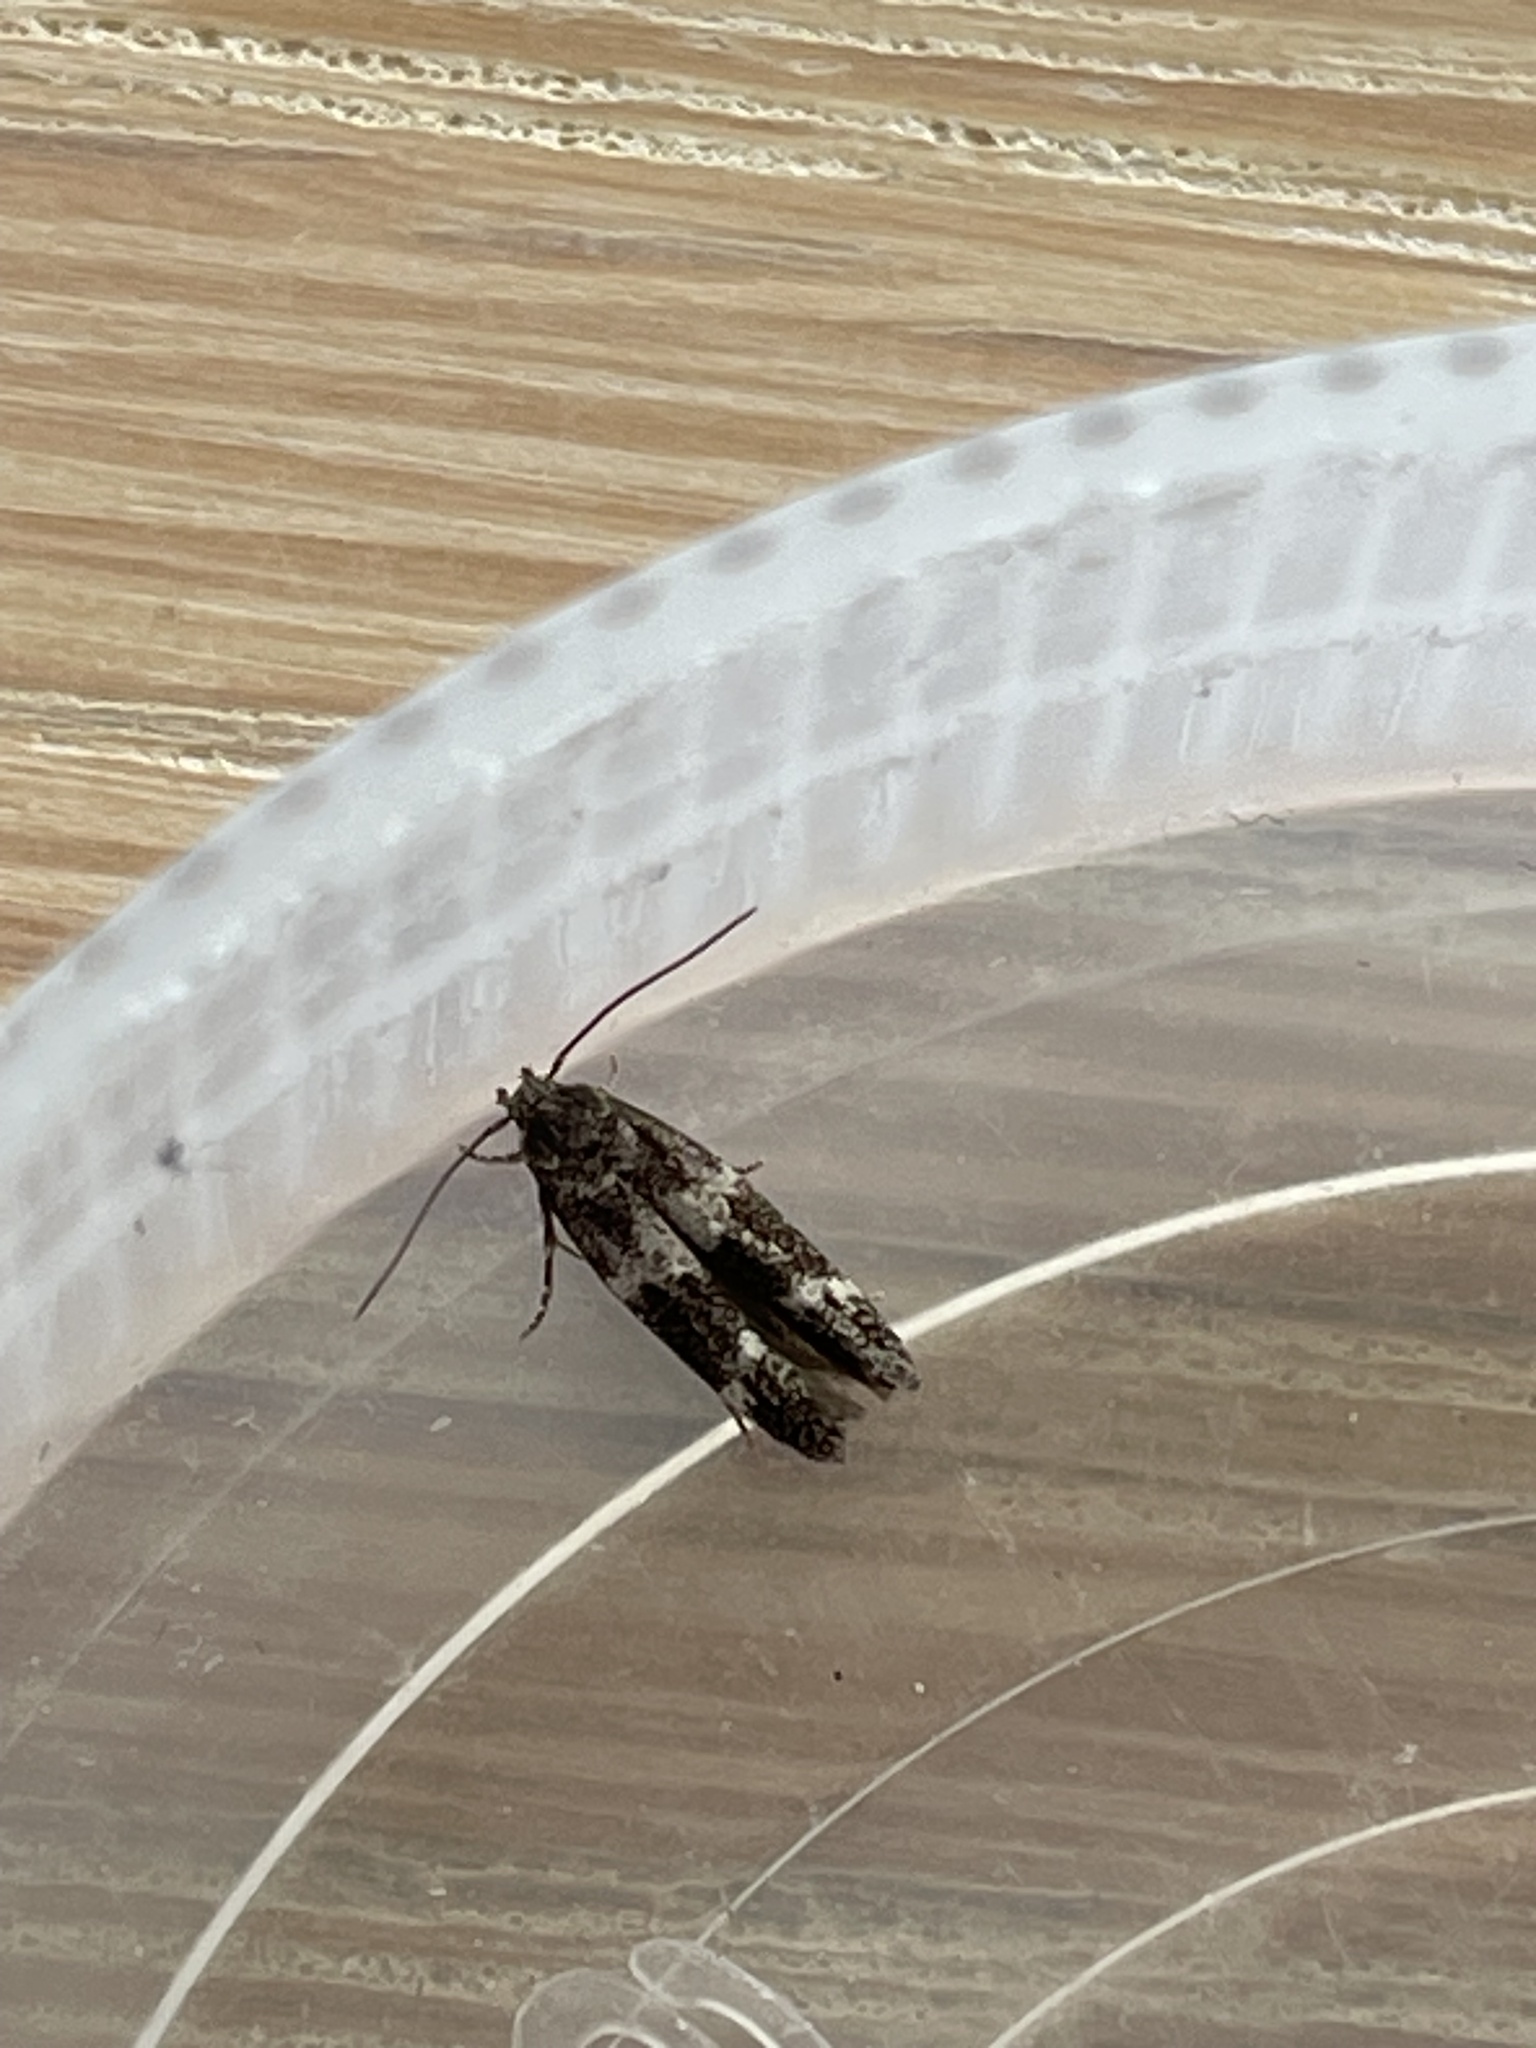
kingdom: Animalia
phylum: Arthropoda
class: Insecta
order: Lepidoptera
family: Momphidae
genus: Mompha
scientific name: Mompha subbistrigella
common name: Garden cosmet
